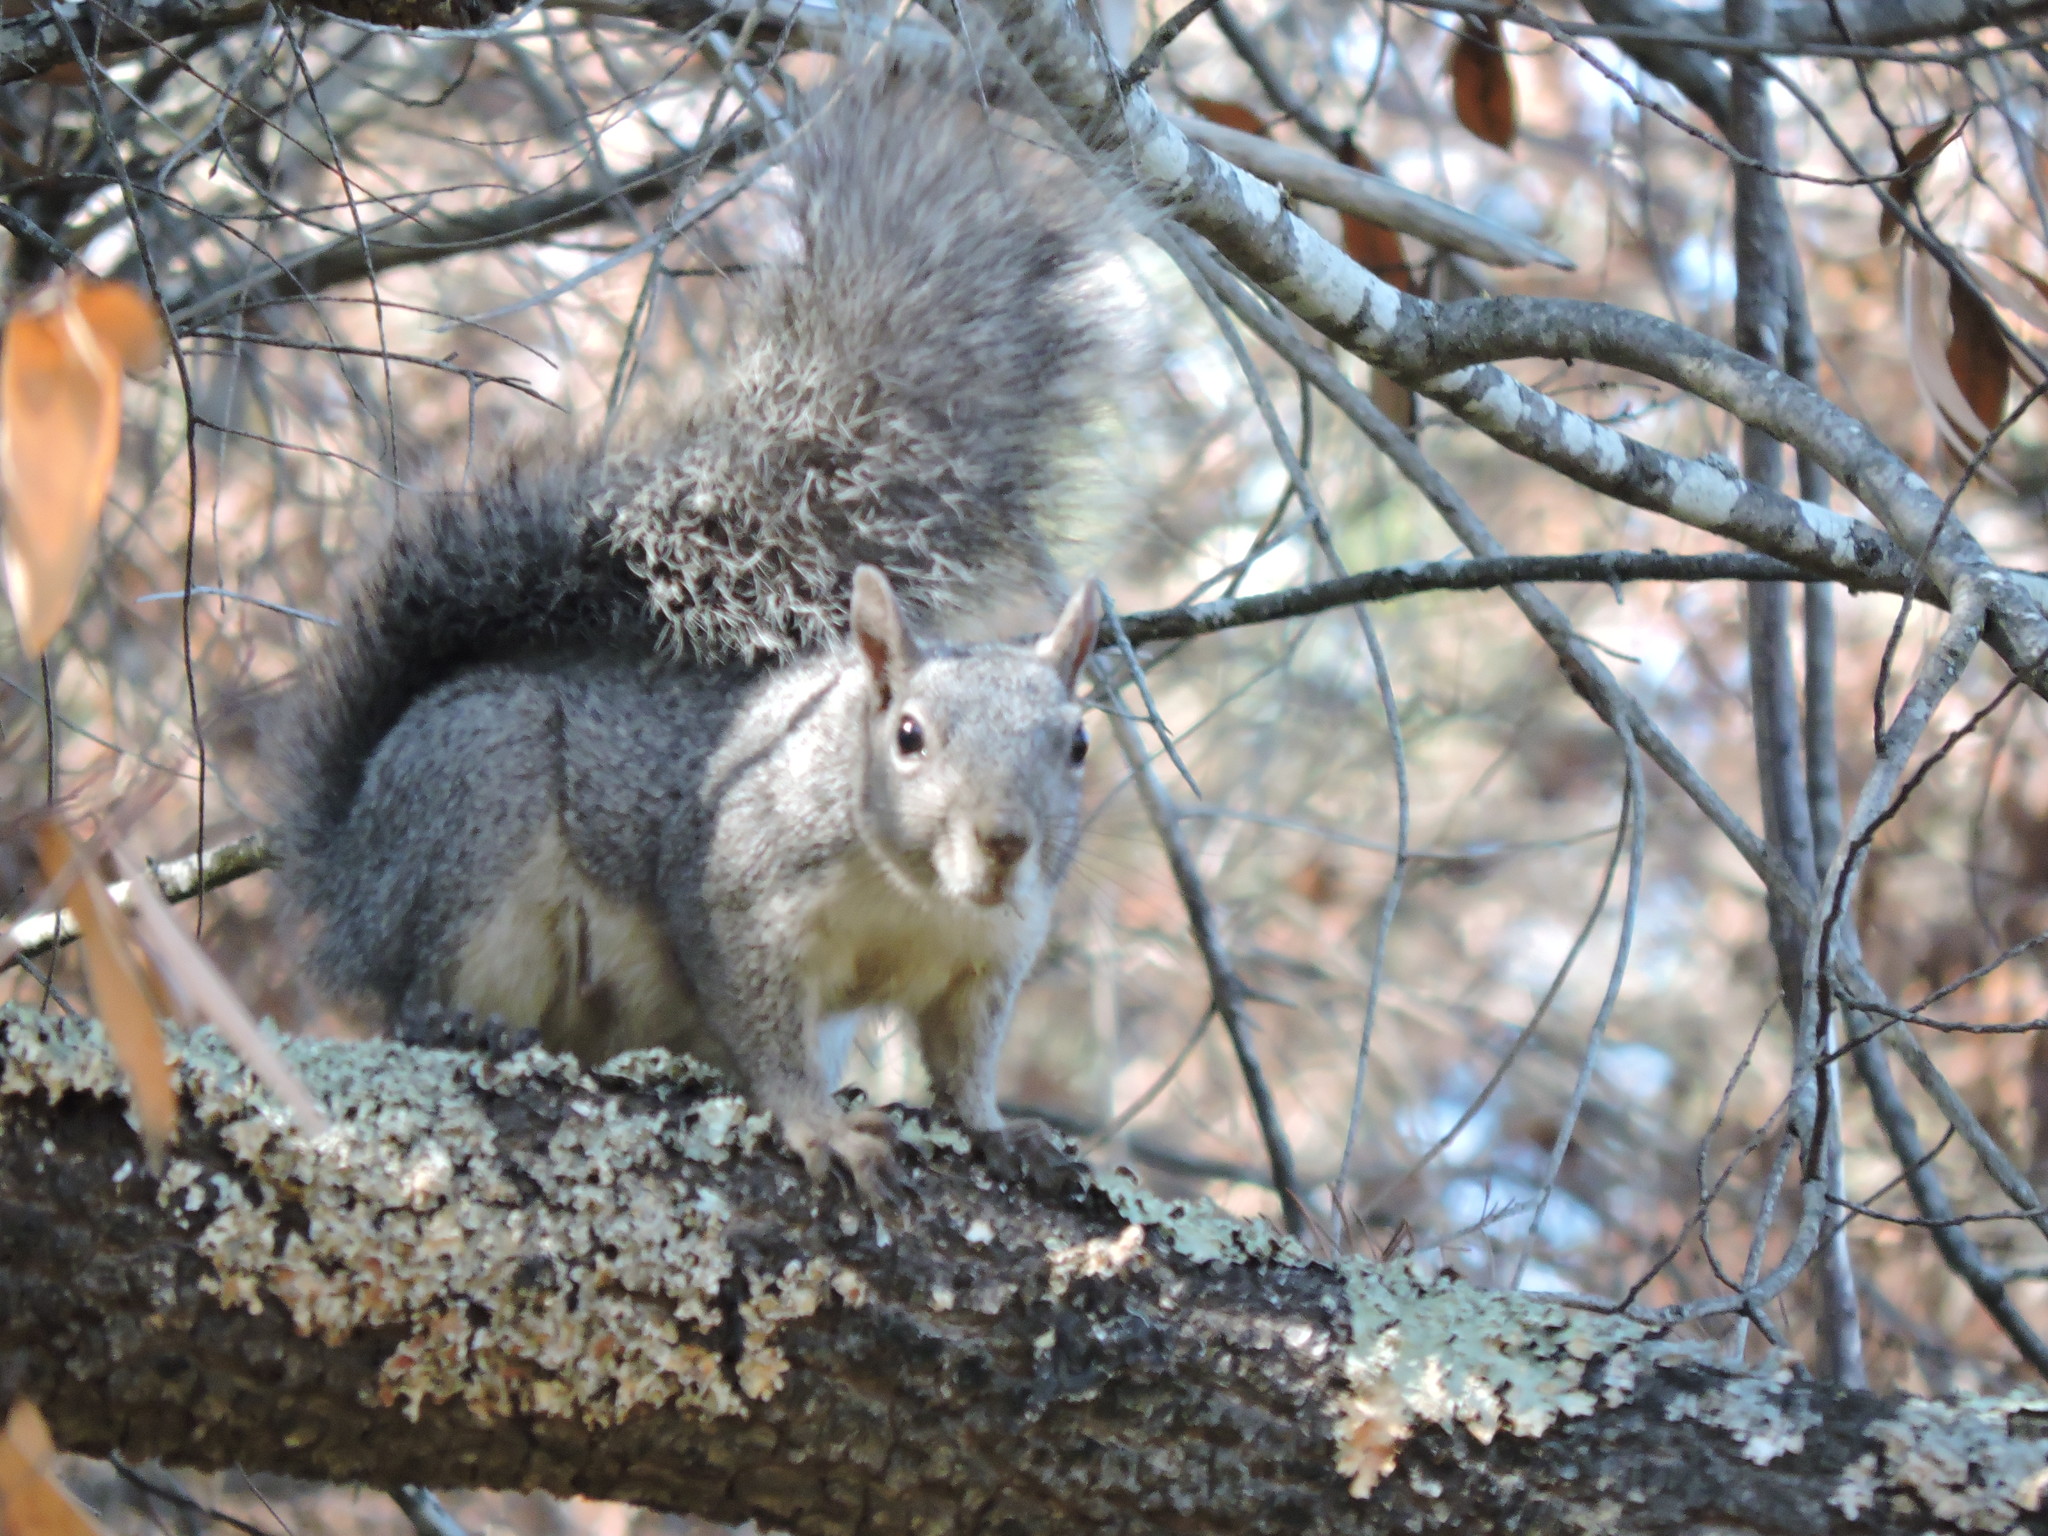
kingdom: Animalia
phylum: Chordata
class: Mammalia
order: Rodentia
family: Sciuridae
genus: Sciurus
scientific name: Sciurus griseus
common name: Western gray squirrel
